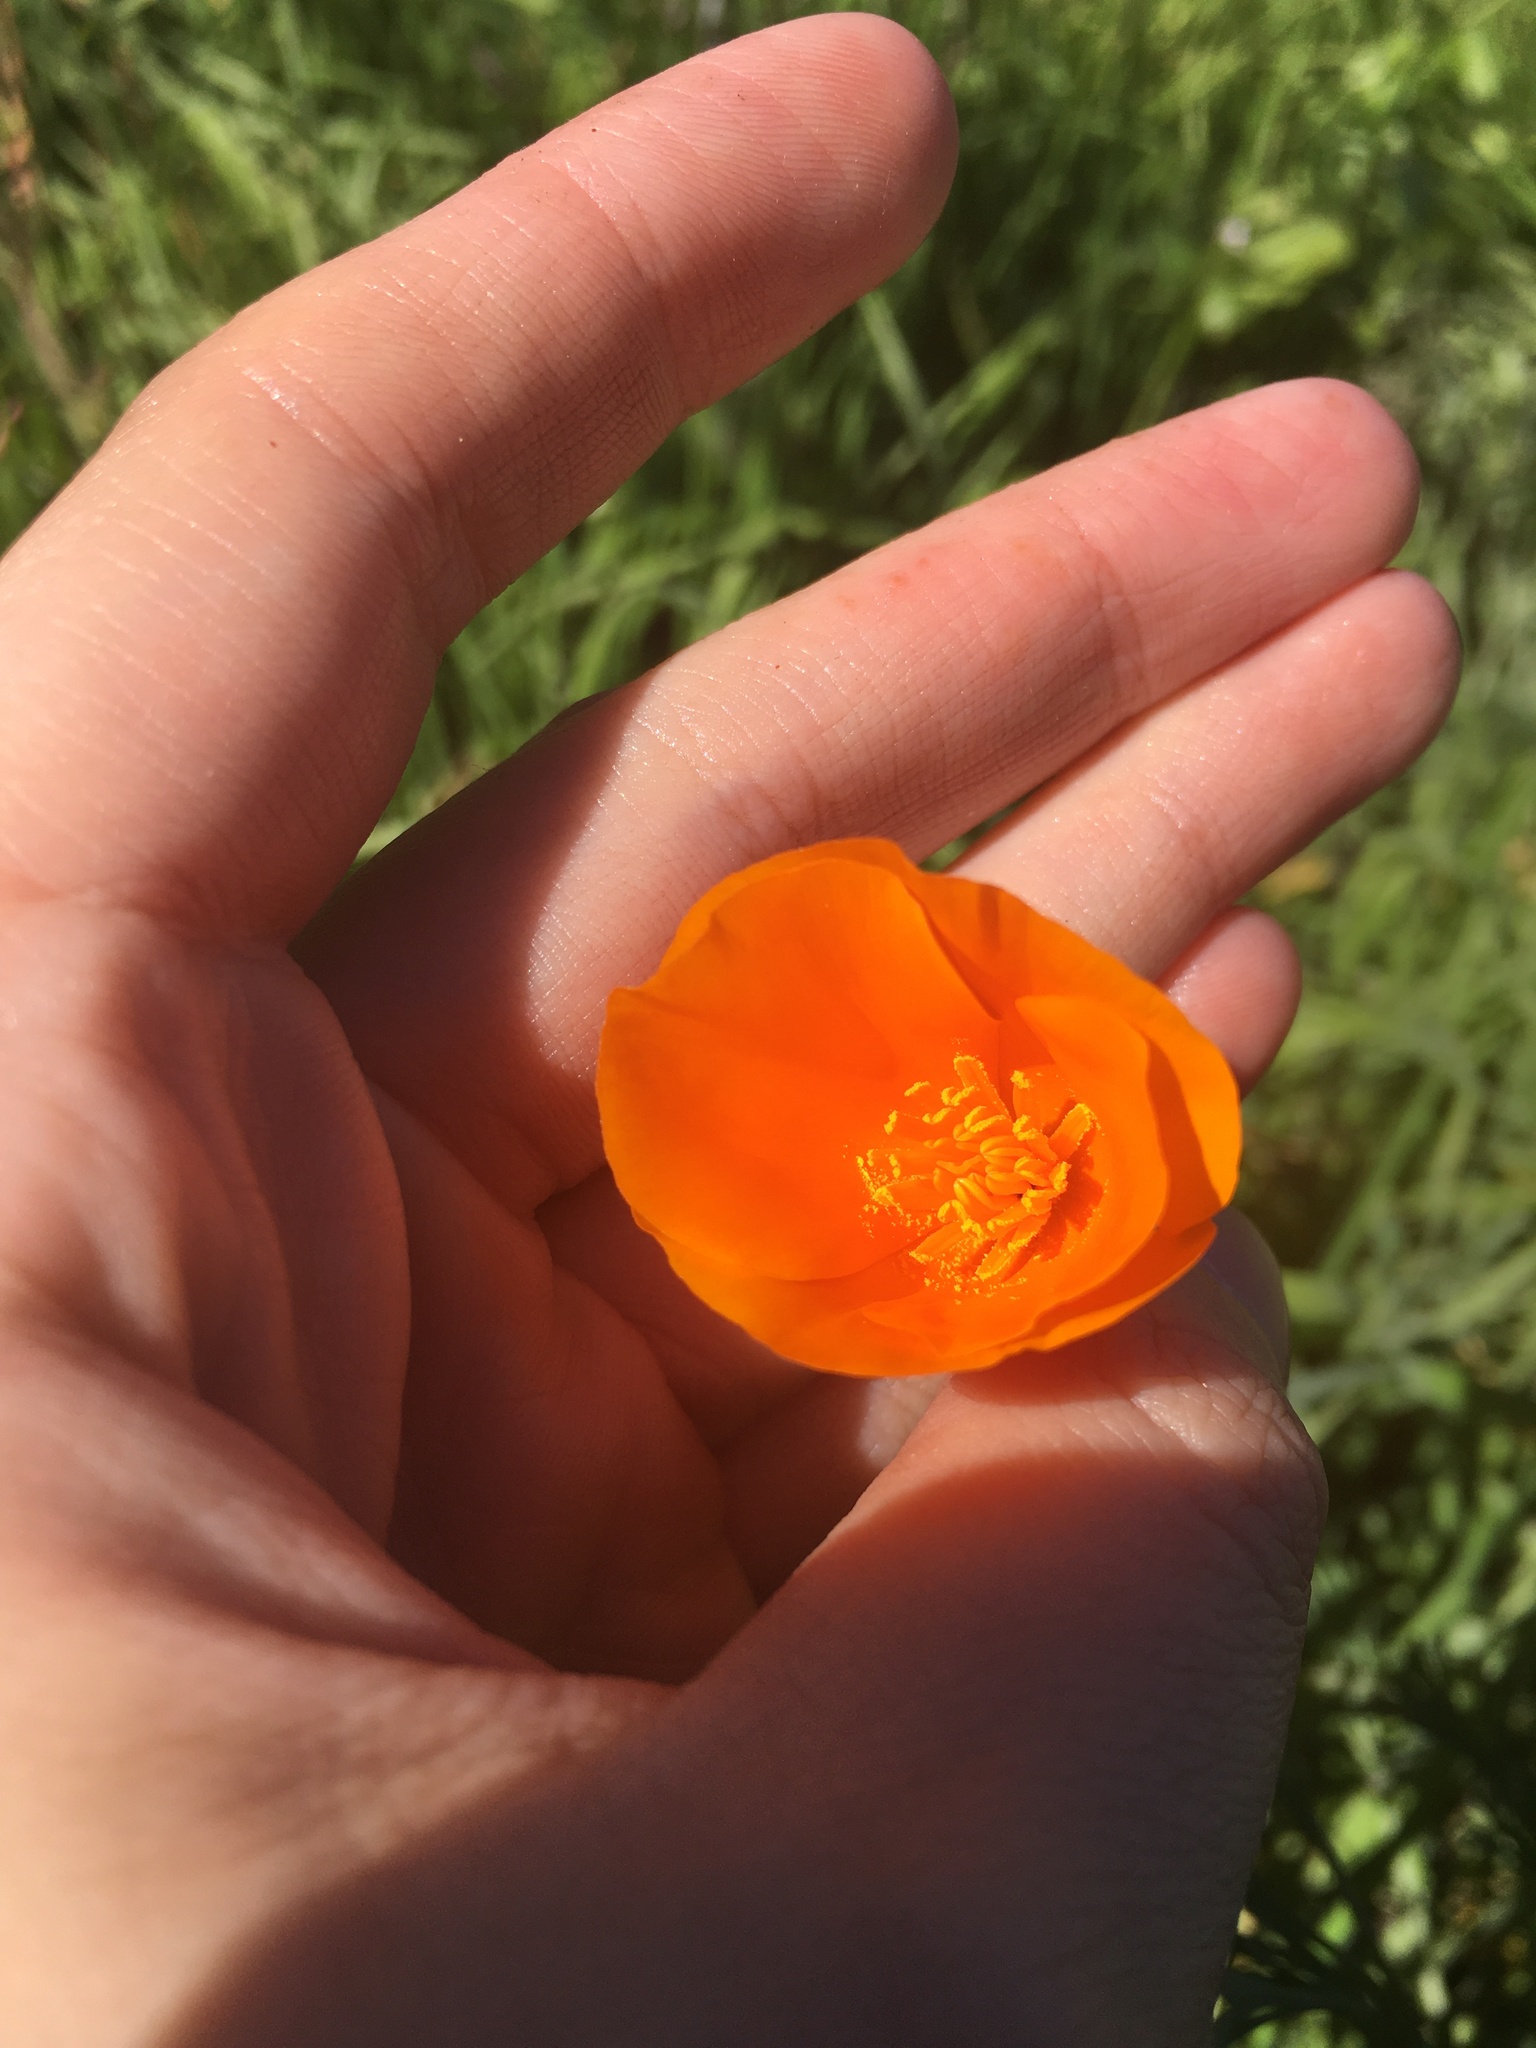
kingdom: Plantae
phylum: Tracheophyta
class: Magnoliopsida
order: Ranunculales
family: Papaveraceae
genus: Eschscholzia
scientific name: Eschscholzia californica
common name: California poppy
